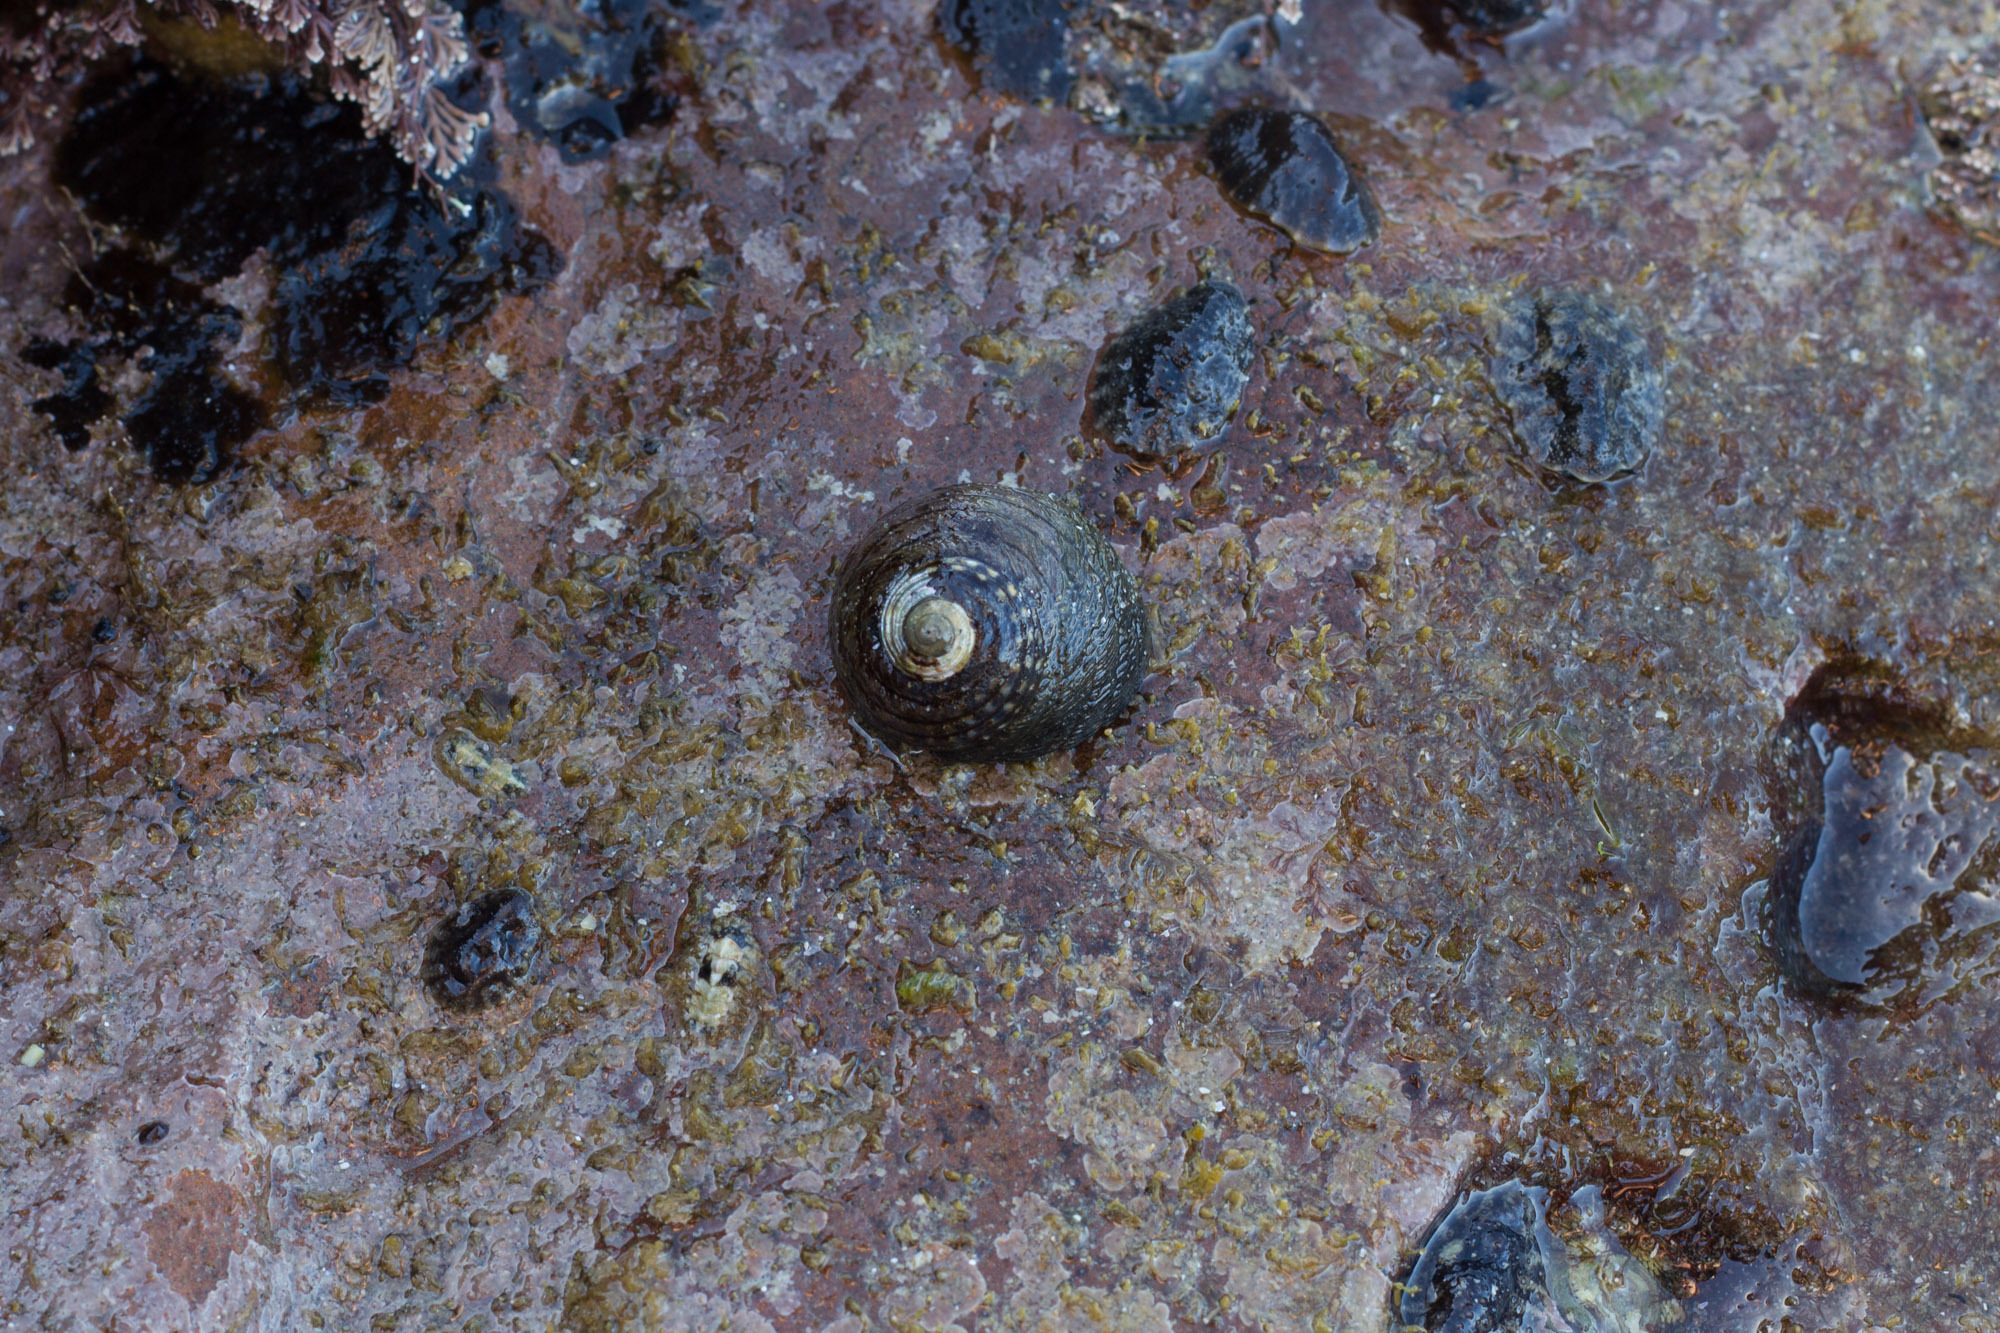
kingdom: Animalia
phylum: Mollusca
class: Gastropoda
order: Trochida
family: Trochidae
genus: Diloma
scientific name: Diloma aethiops
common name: Scorched monodont
